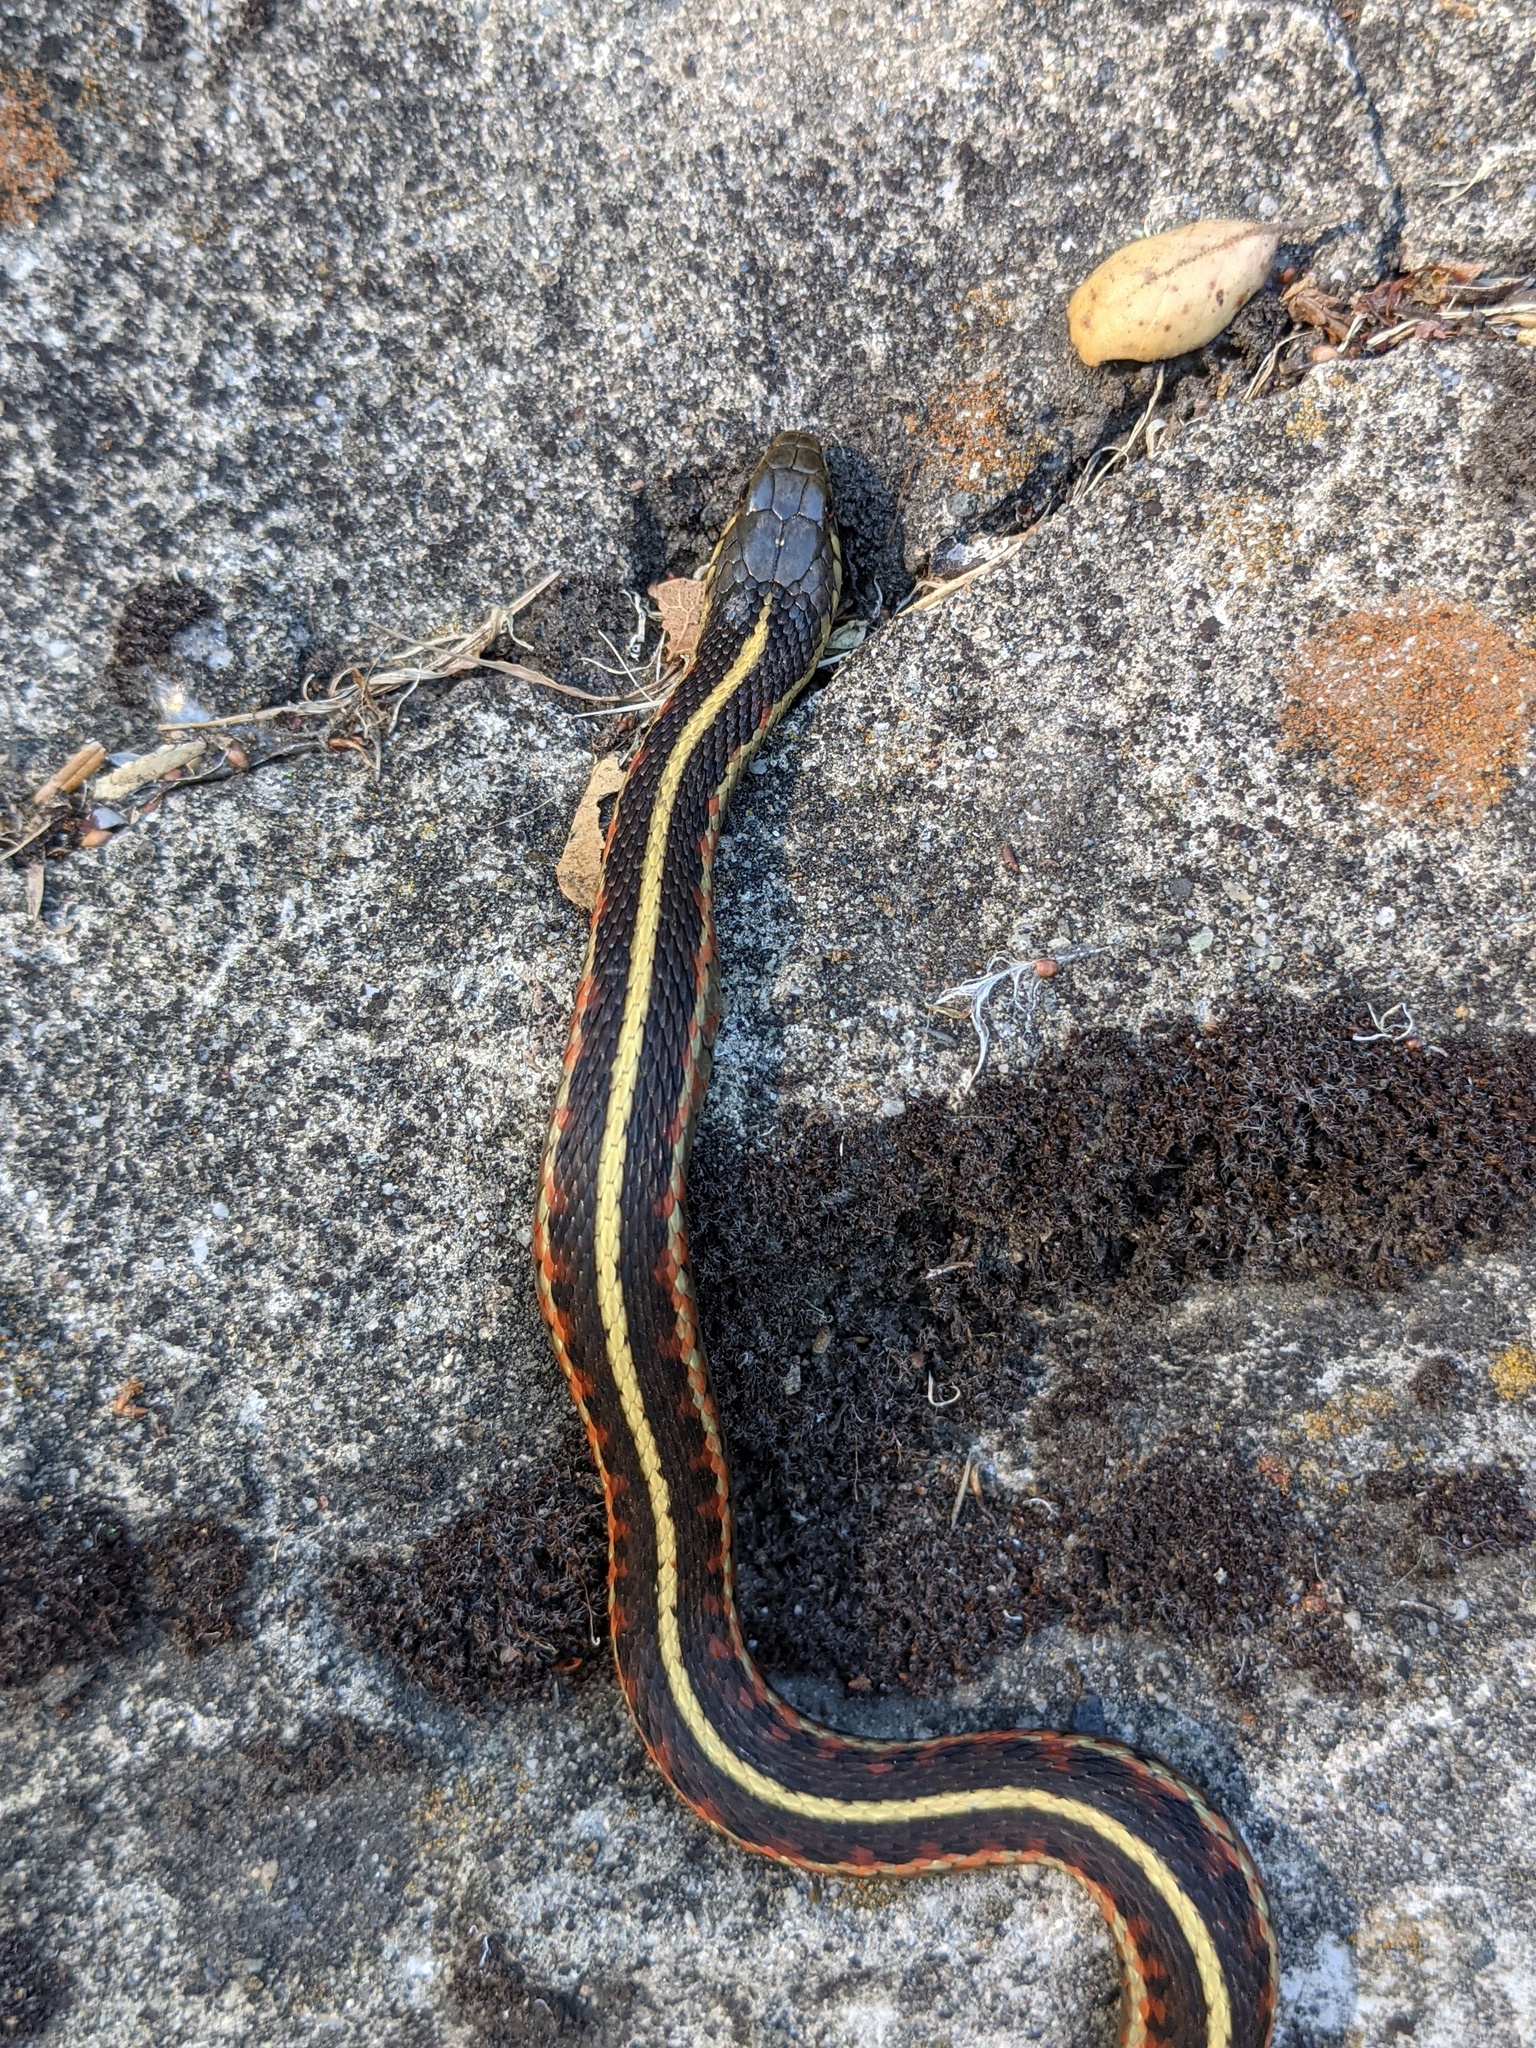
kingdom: Animalia
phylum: Chordata
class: Squamata
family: Colubridae
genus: Thamnophis
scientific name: Thamnophis elegans
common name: Western terrestrial garter snake
